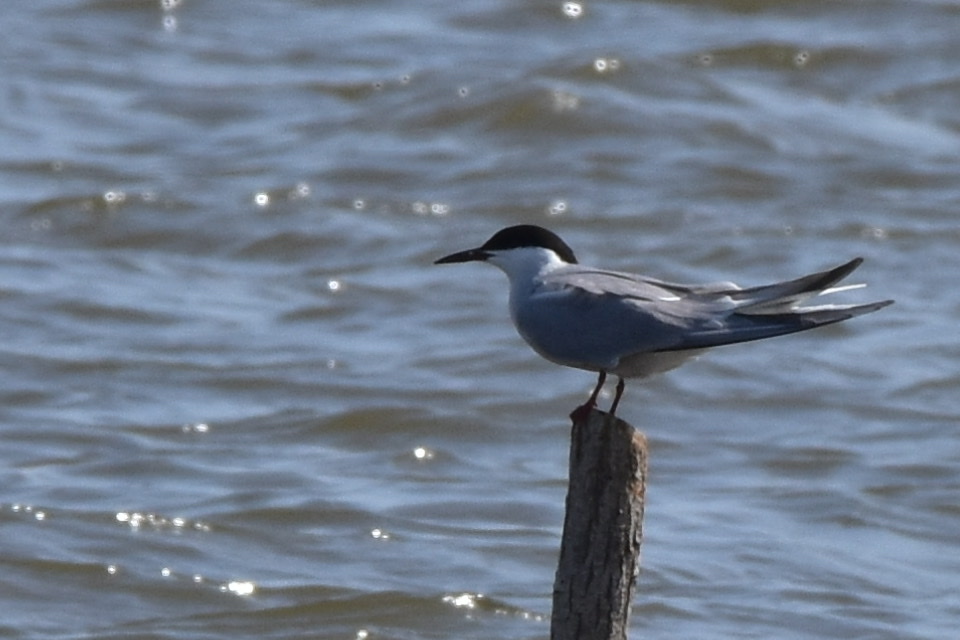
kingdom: Animalia
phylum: Chordata
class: Aves
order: Charadriiformes
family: Laridae
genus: Sterna
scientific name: Sterna hirundo
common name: Common tern
